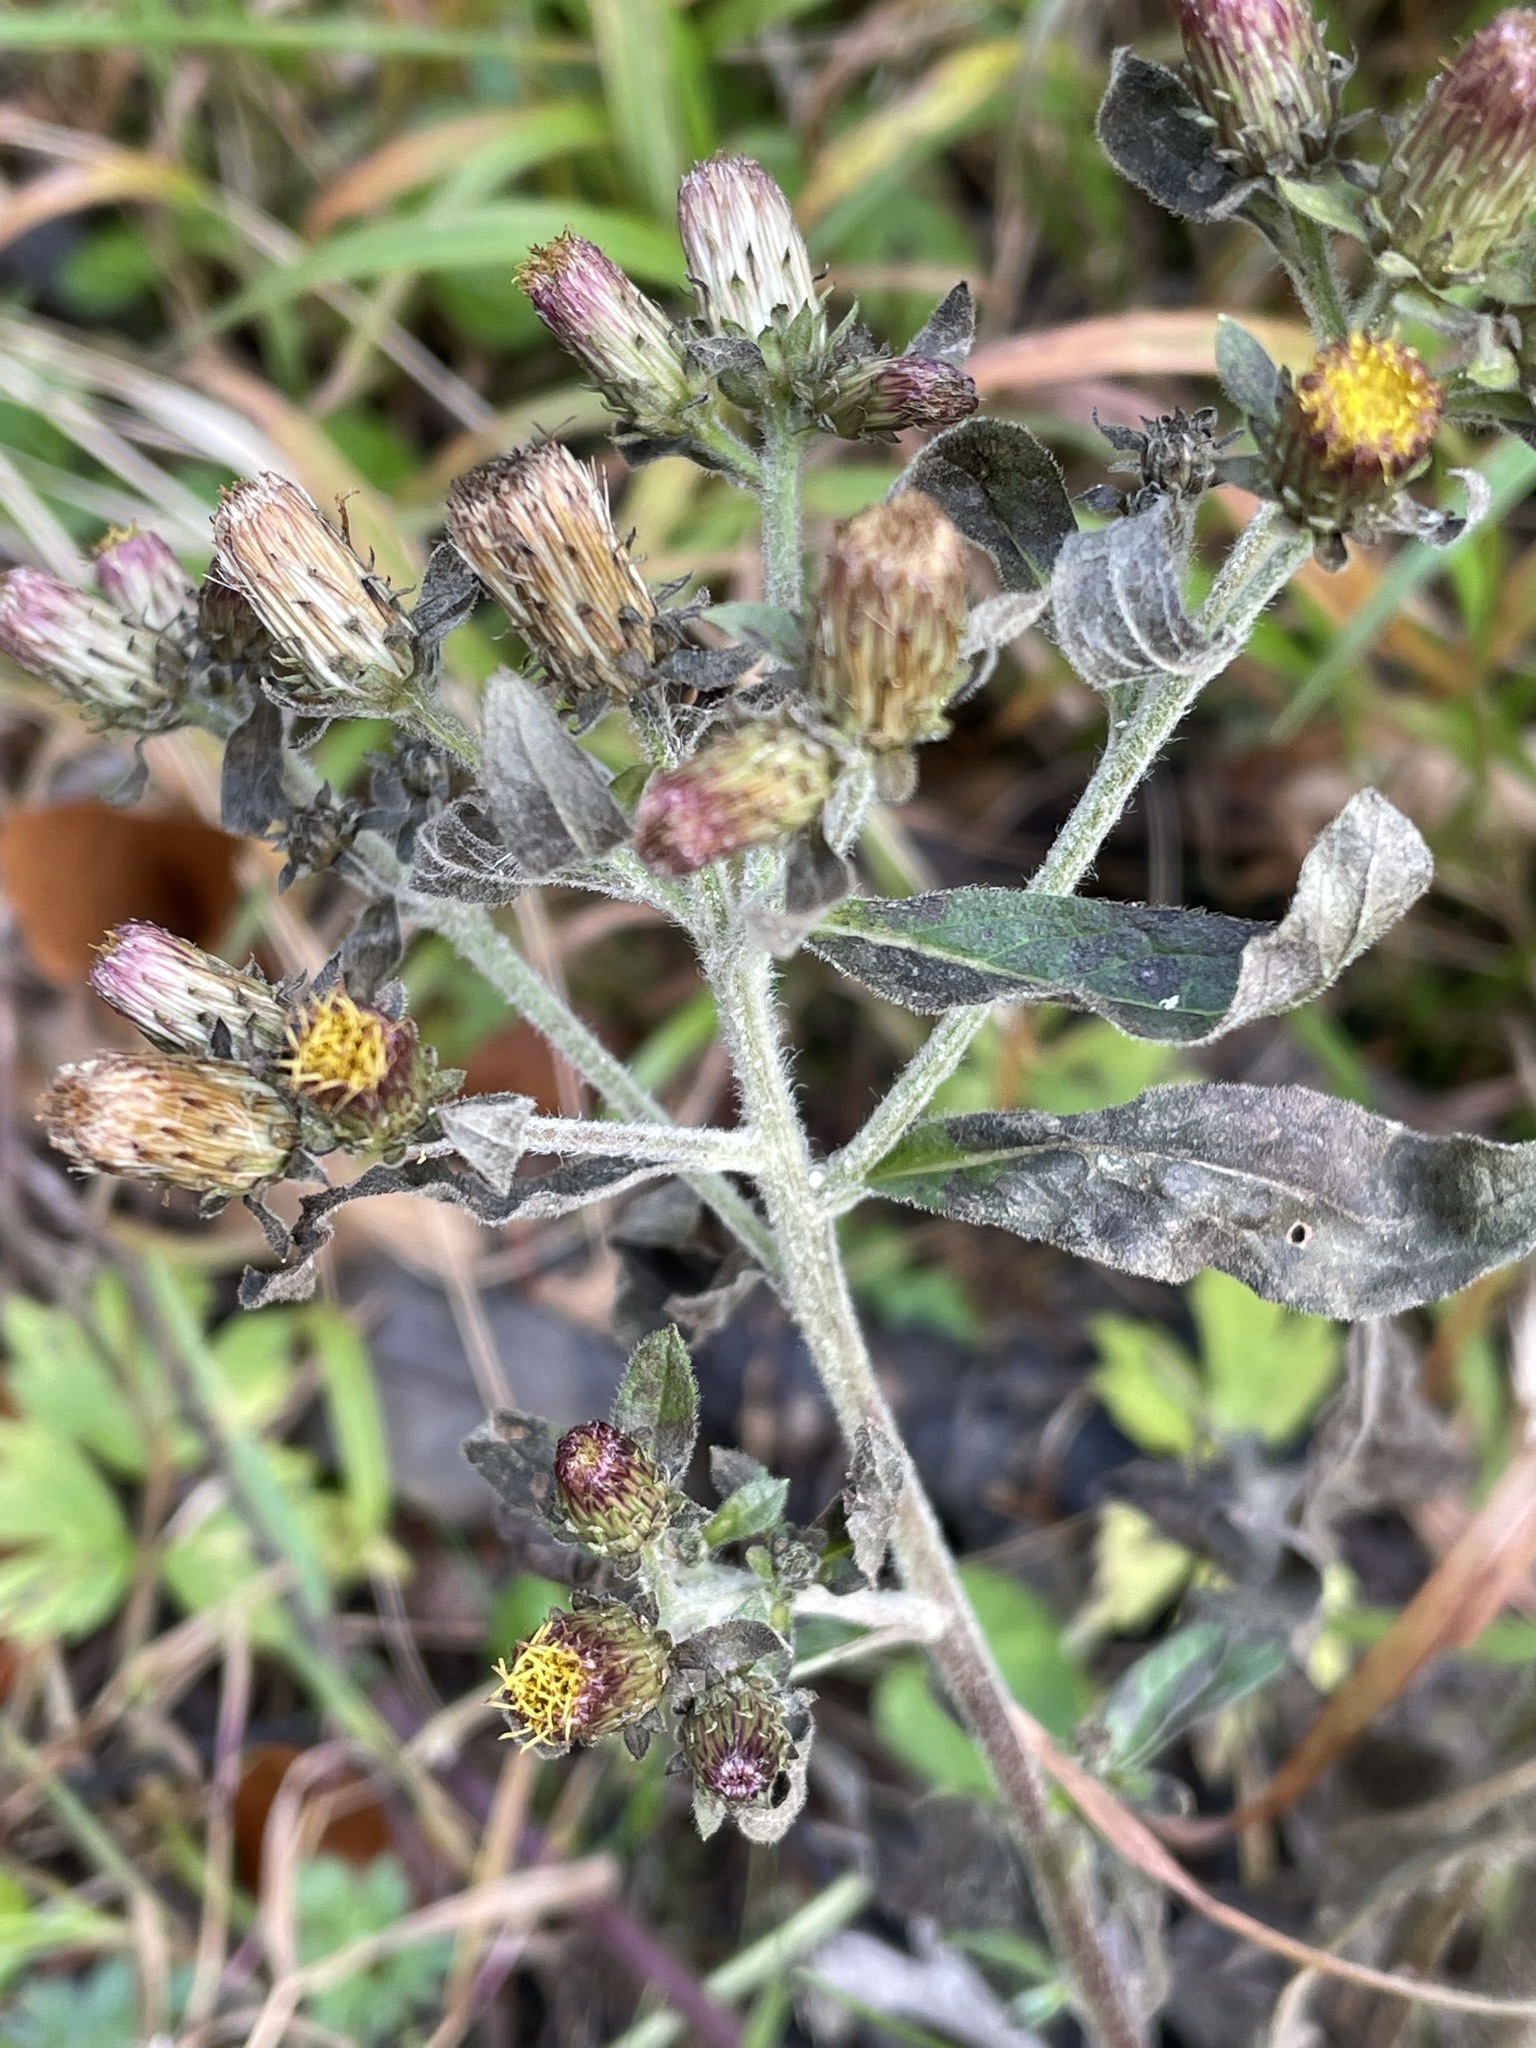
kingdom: Plantae
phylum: Tracheophyta
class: Magnoliopsida
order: Asterales
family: Asteraceae
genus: Pentanema
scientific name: Pentanema squarrosum
